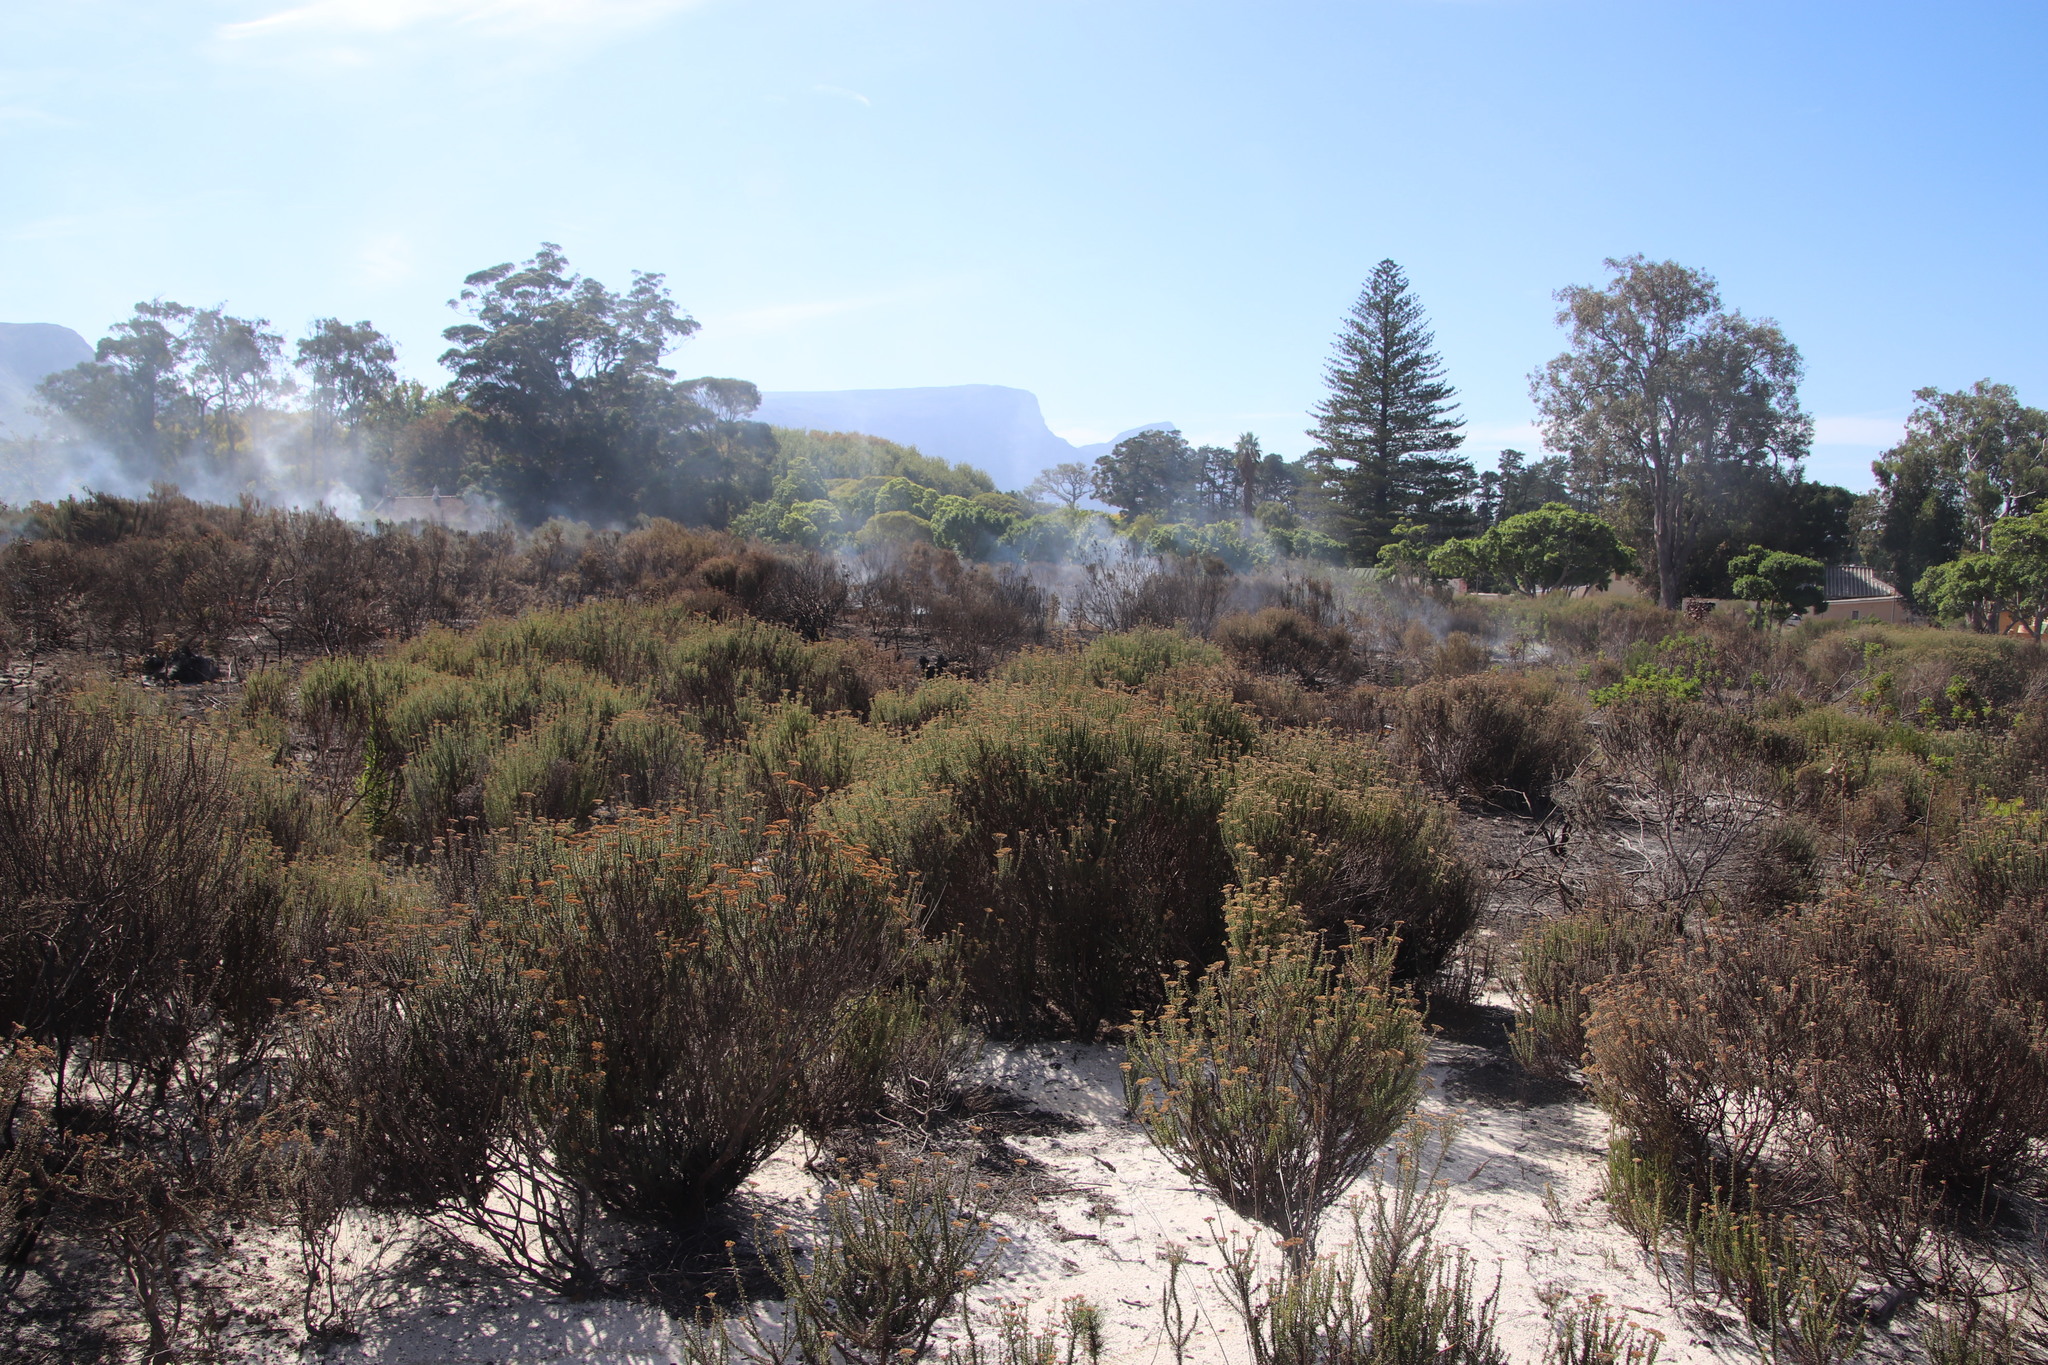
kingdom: Plantae
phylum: Tracheophyta
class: Magnoliopsida
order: Asterales
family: Asteraceae
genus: Metalasia
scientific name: Metalasia densa
